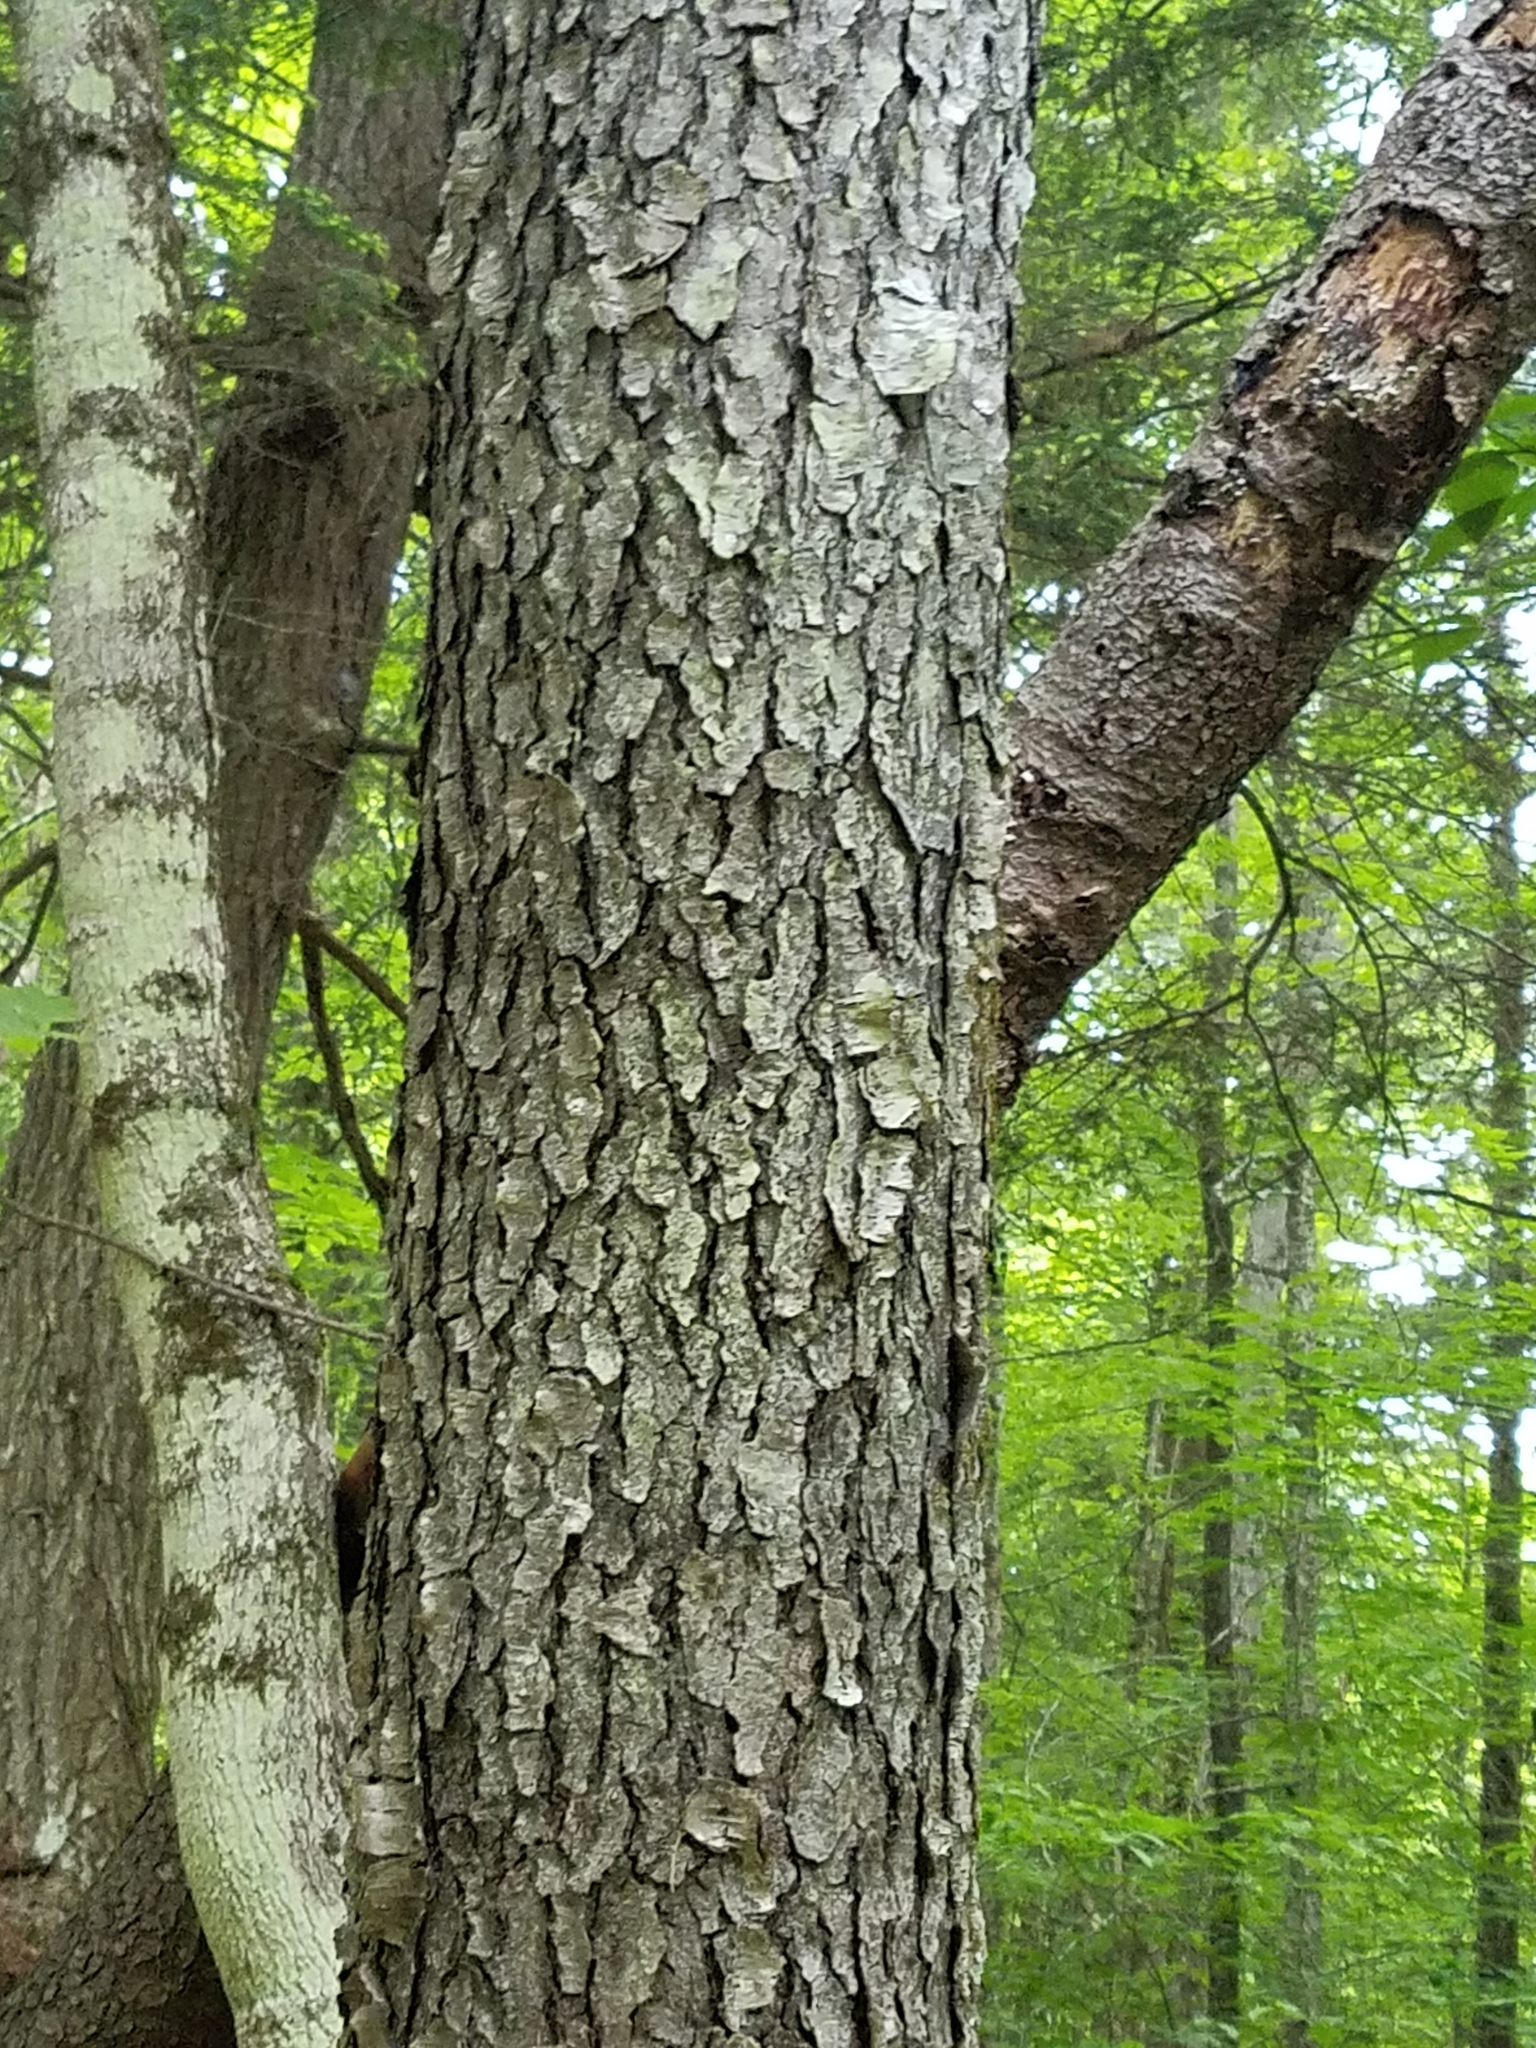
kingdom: Plantae
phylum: Tracheophyta
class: Magnoliopsida
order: Rosales
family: Rosaceae
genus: Prunus
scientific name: Prunus serotina
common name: Black cherry
